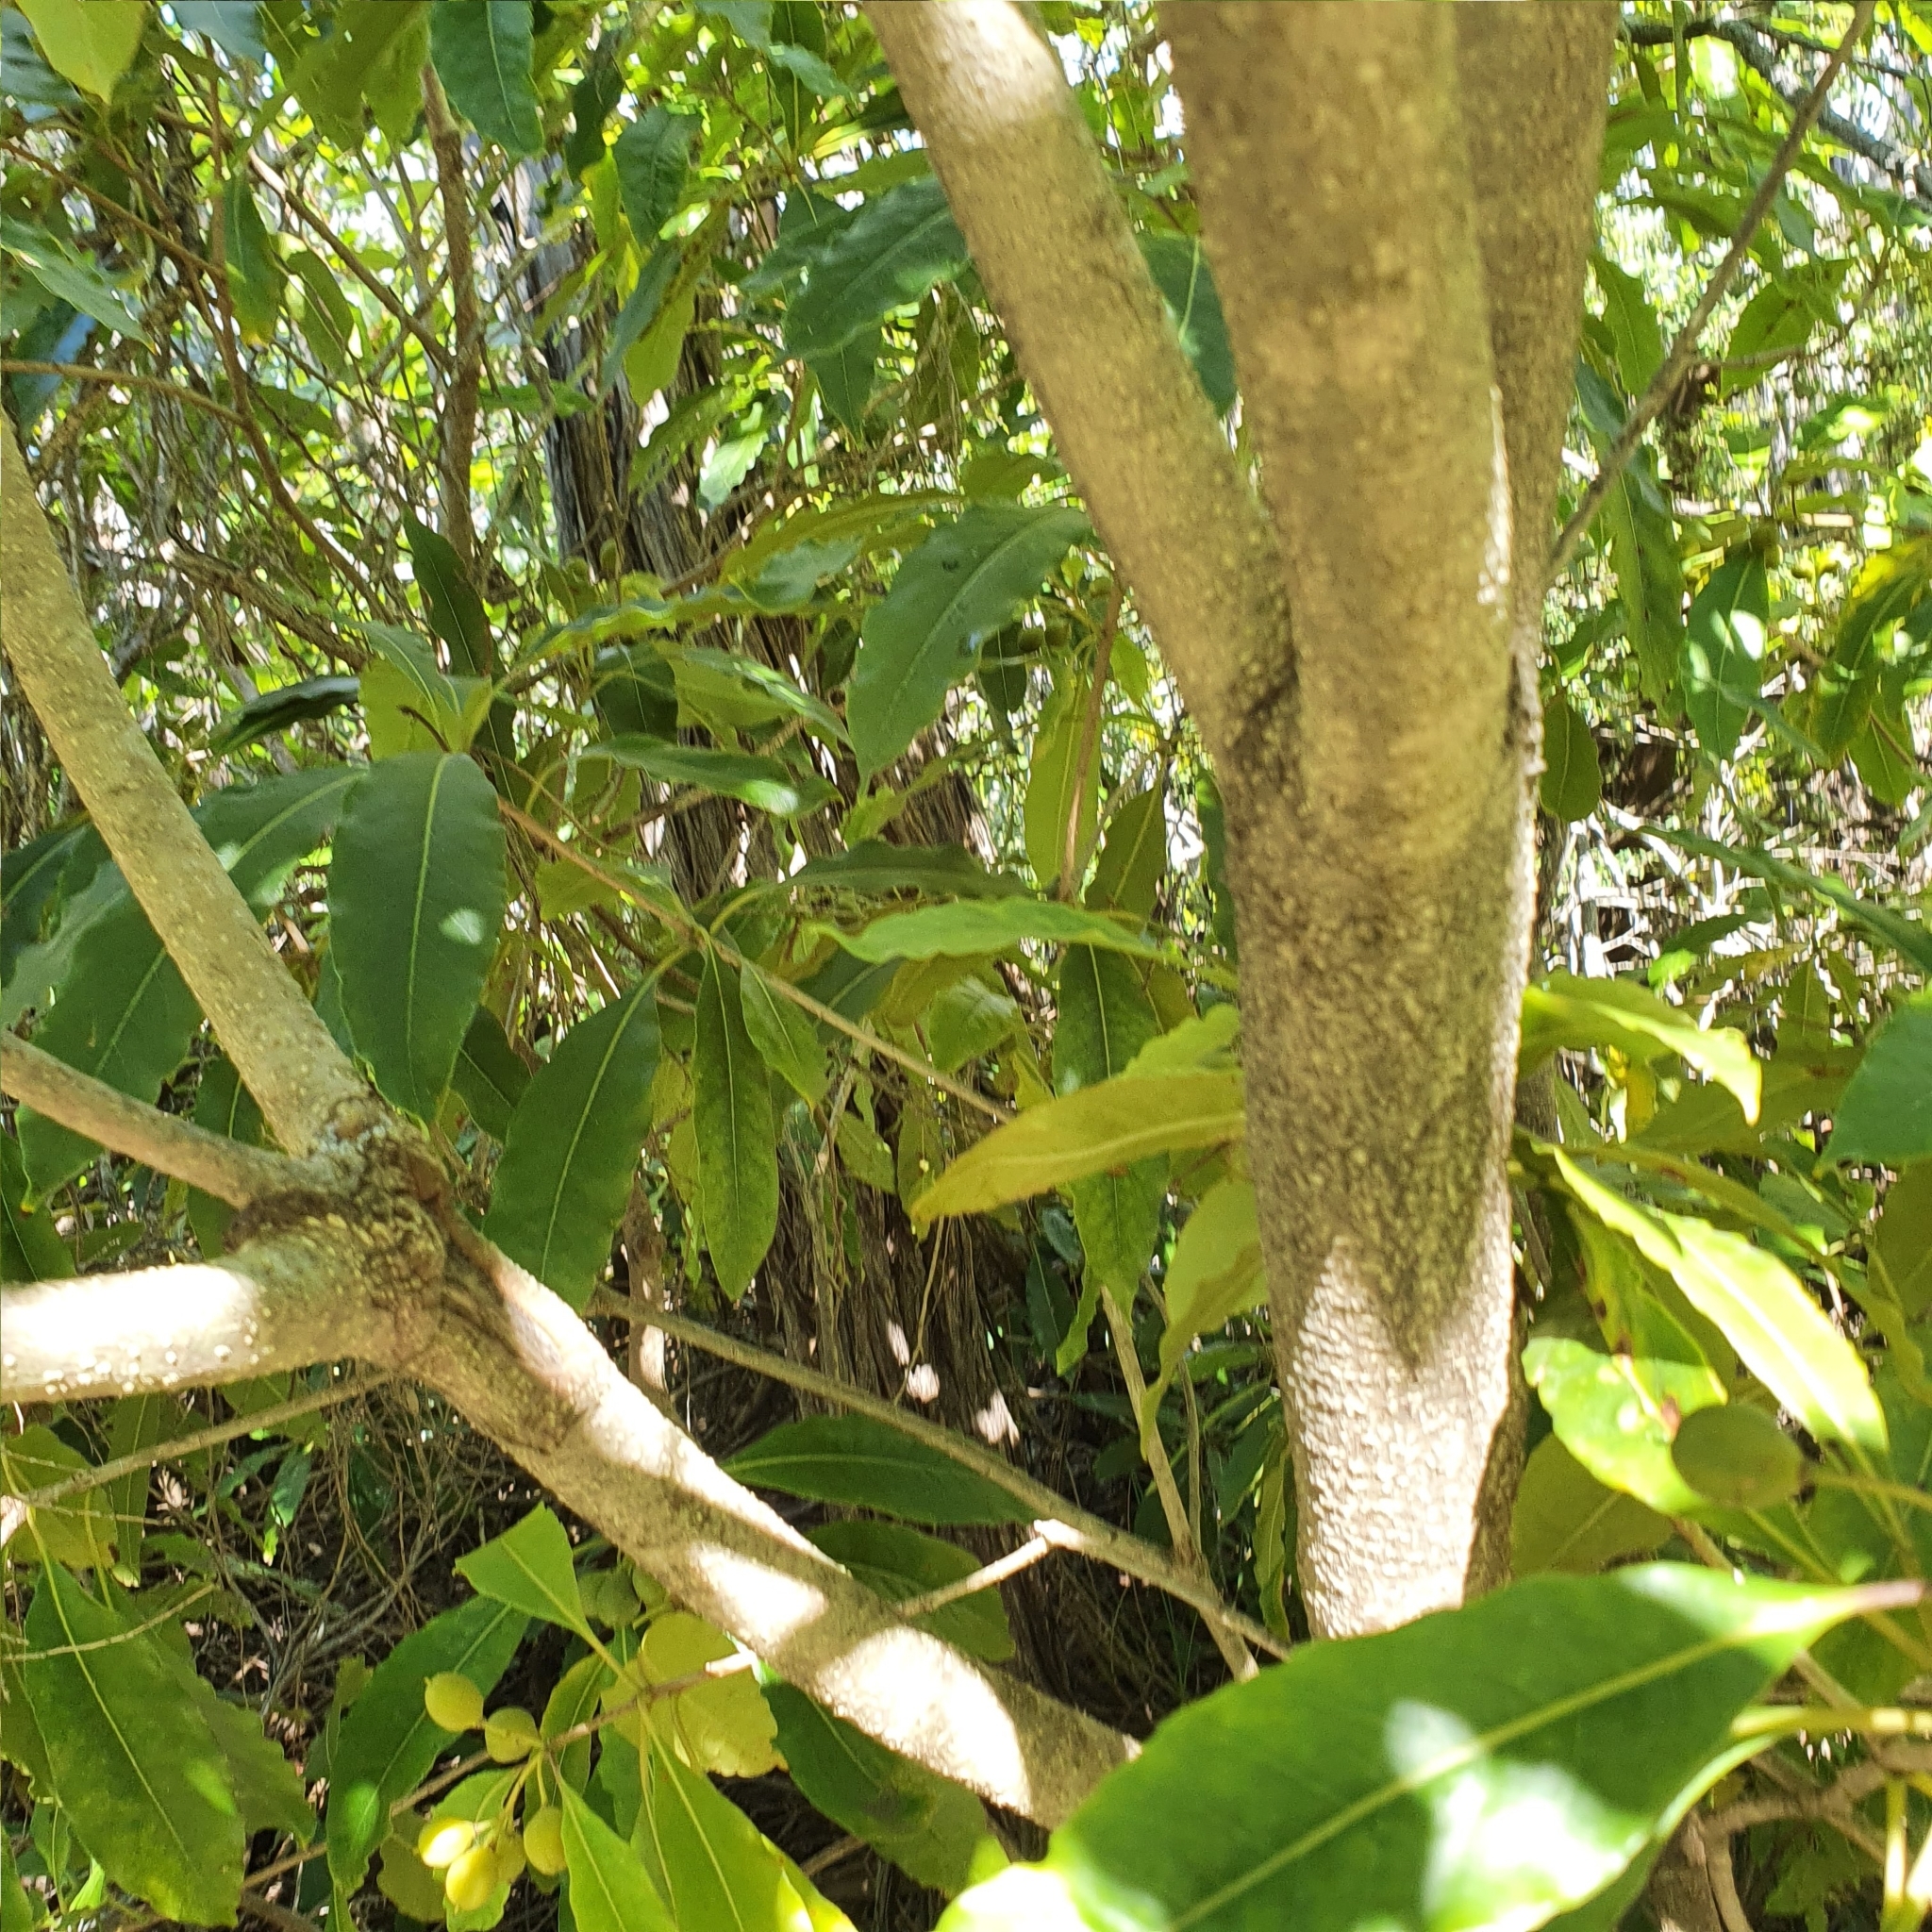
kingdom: Plantae
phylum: Tracheophyta
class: Magnoliopsida
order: Apiales
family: Pittosporaceae
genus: Pittosporum
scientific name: Pittosporum undulatum
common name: Australian cheesewood
